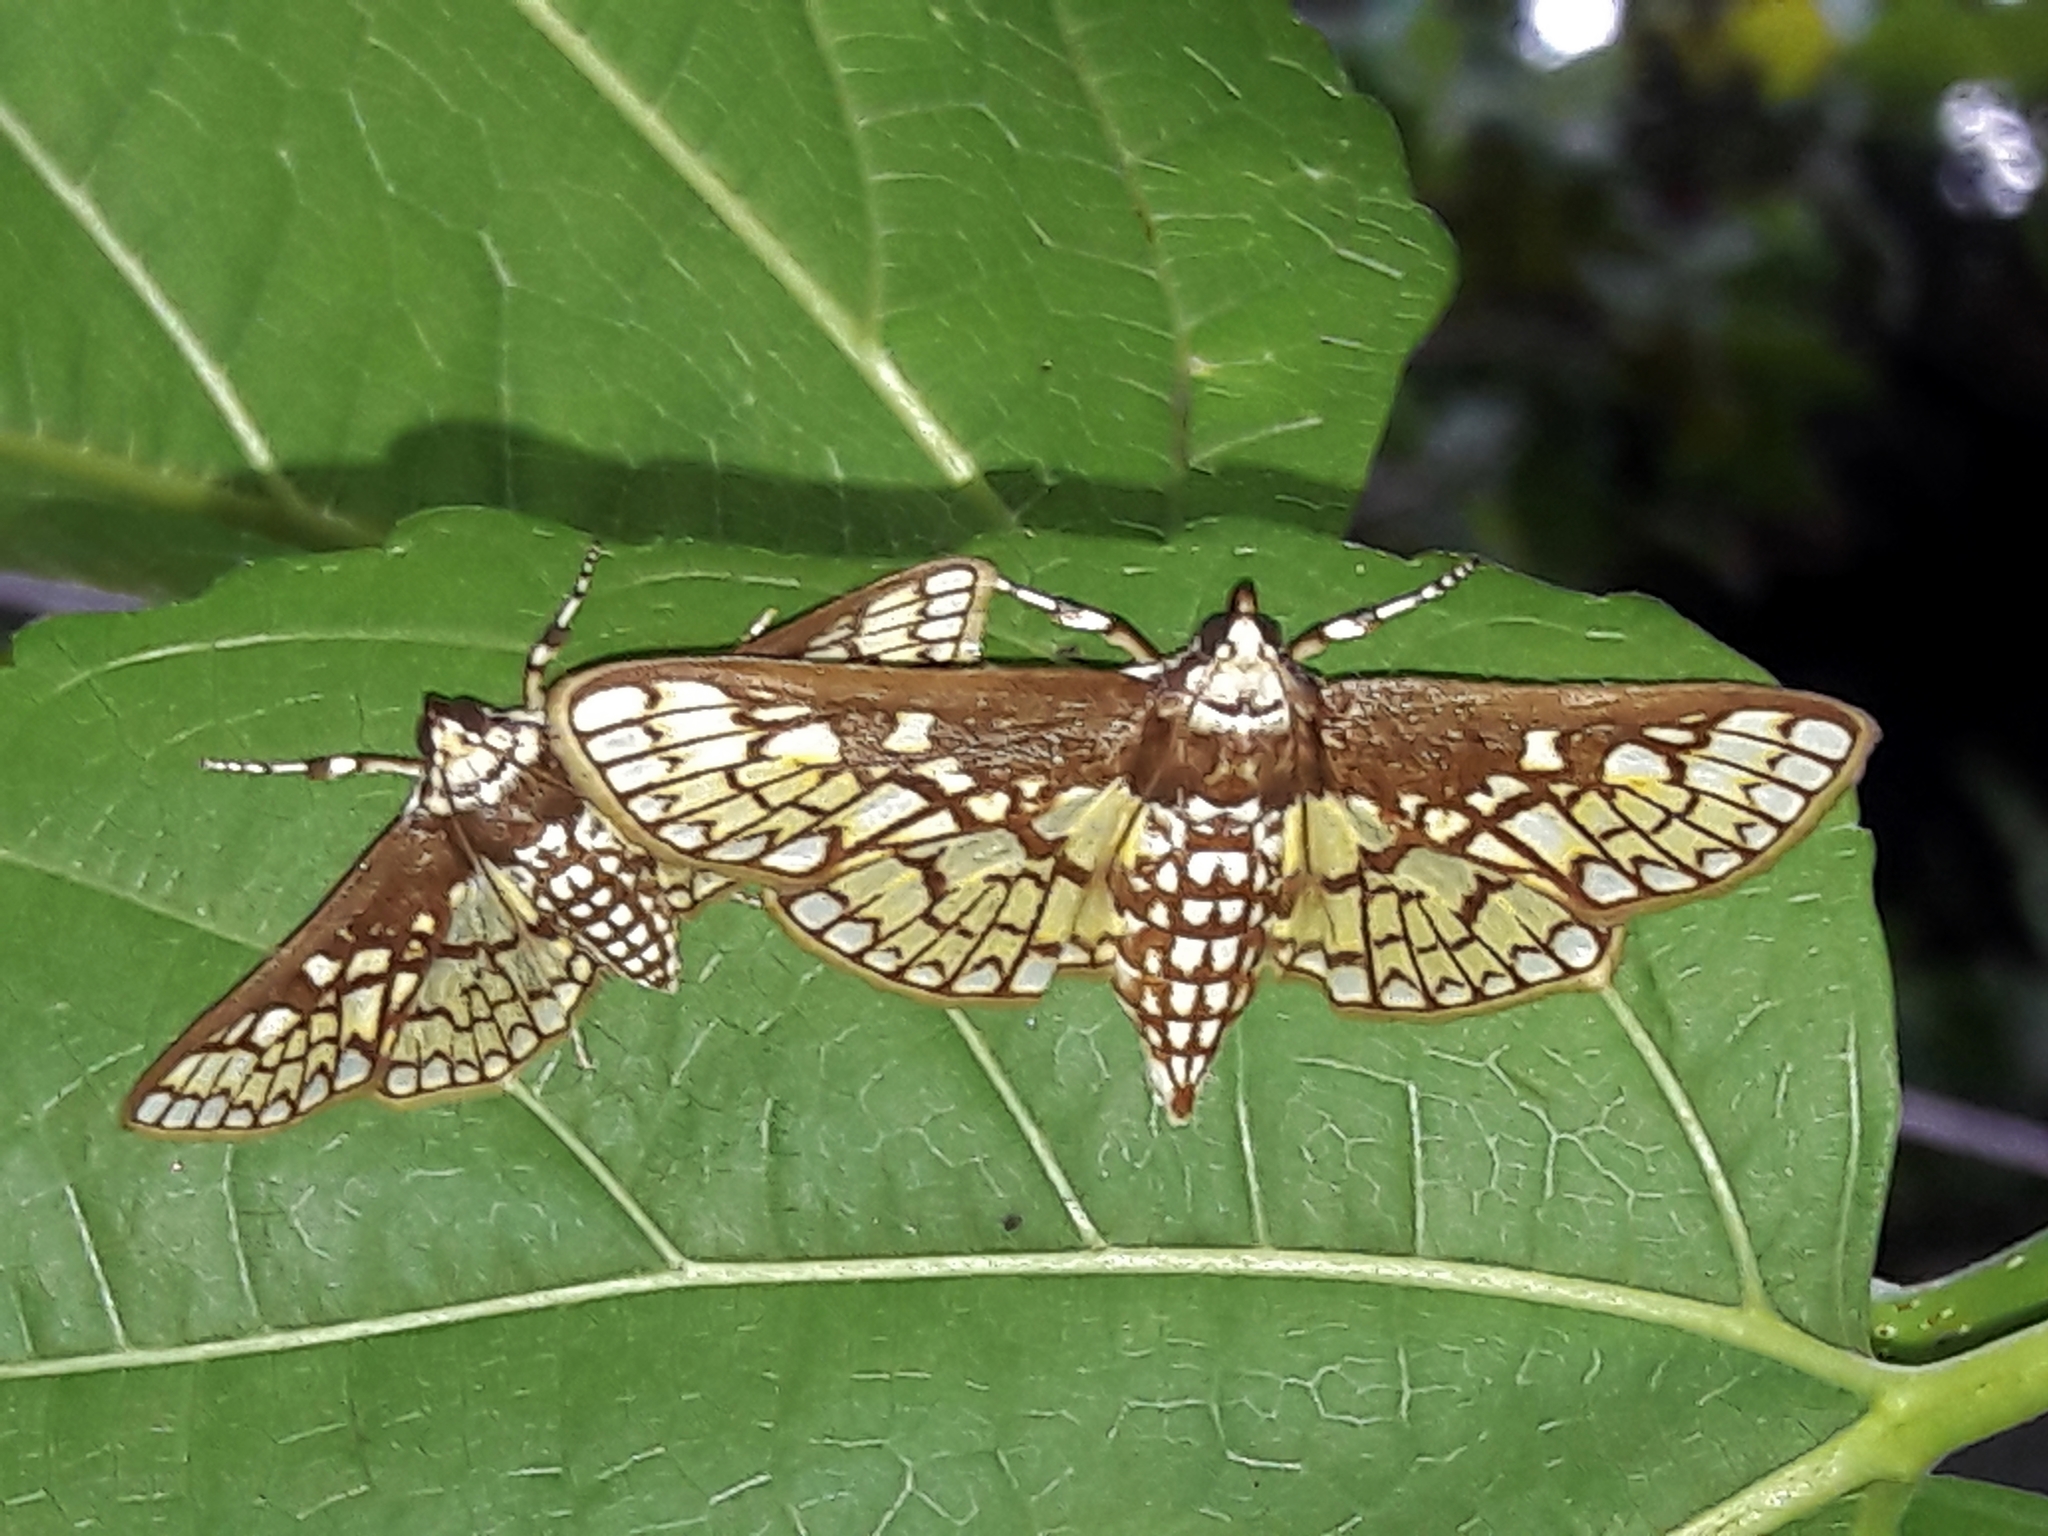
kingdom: Animalia
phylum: Arthropoda
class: Insecta
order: Lepidoptera
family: Crambidae
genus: Polygrammodes
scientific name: Polygrammodes dubialis
